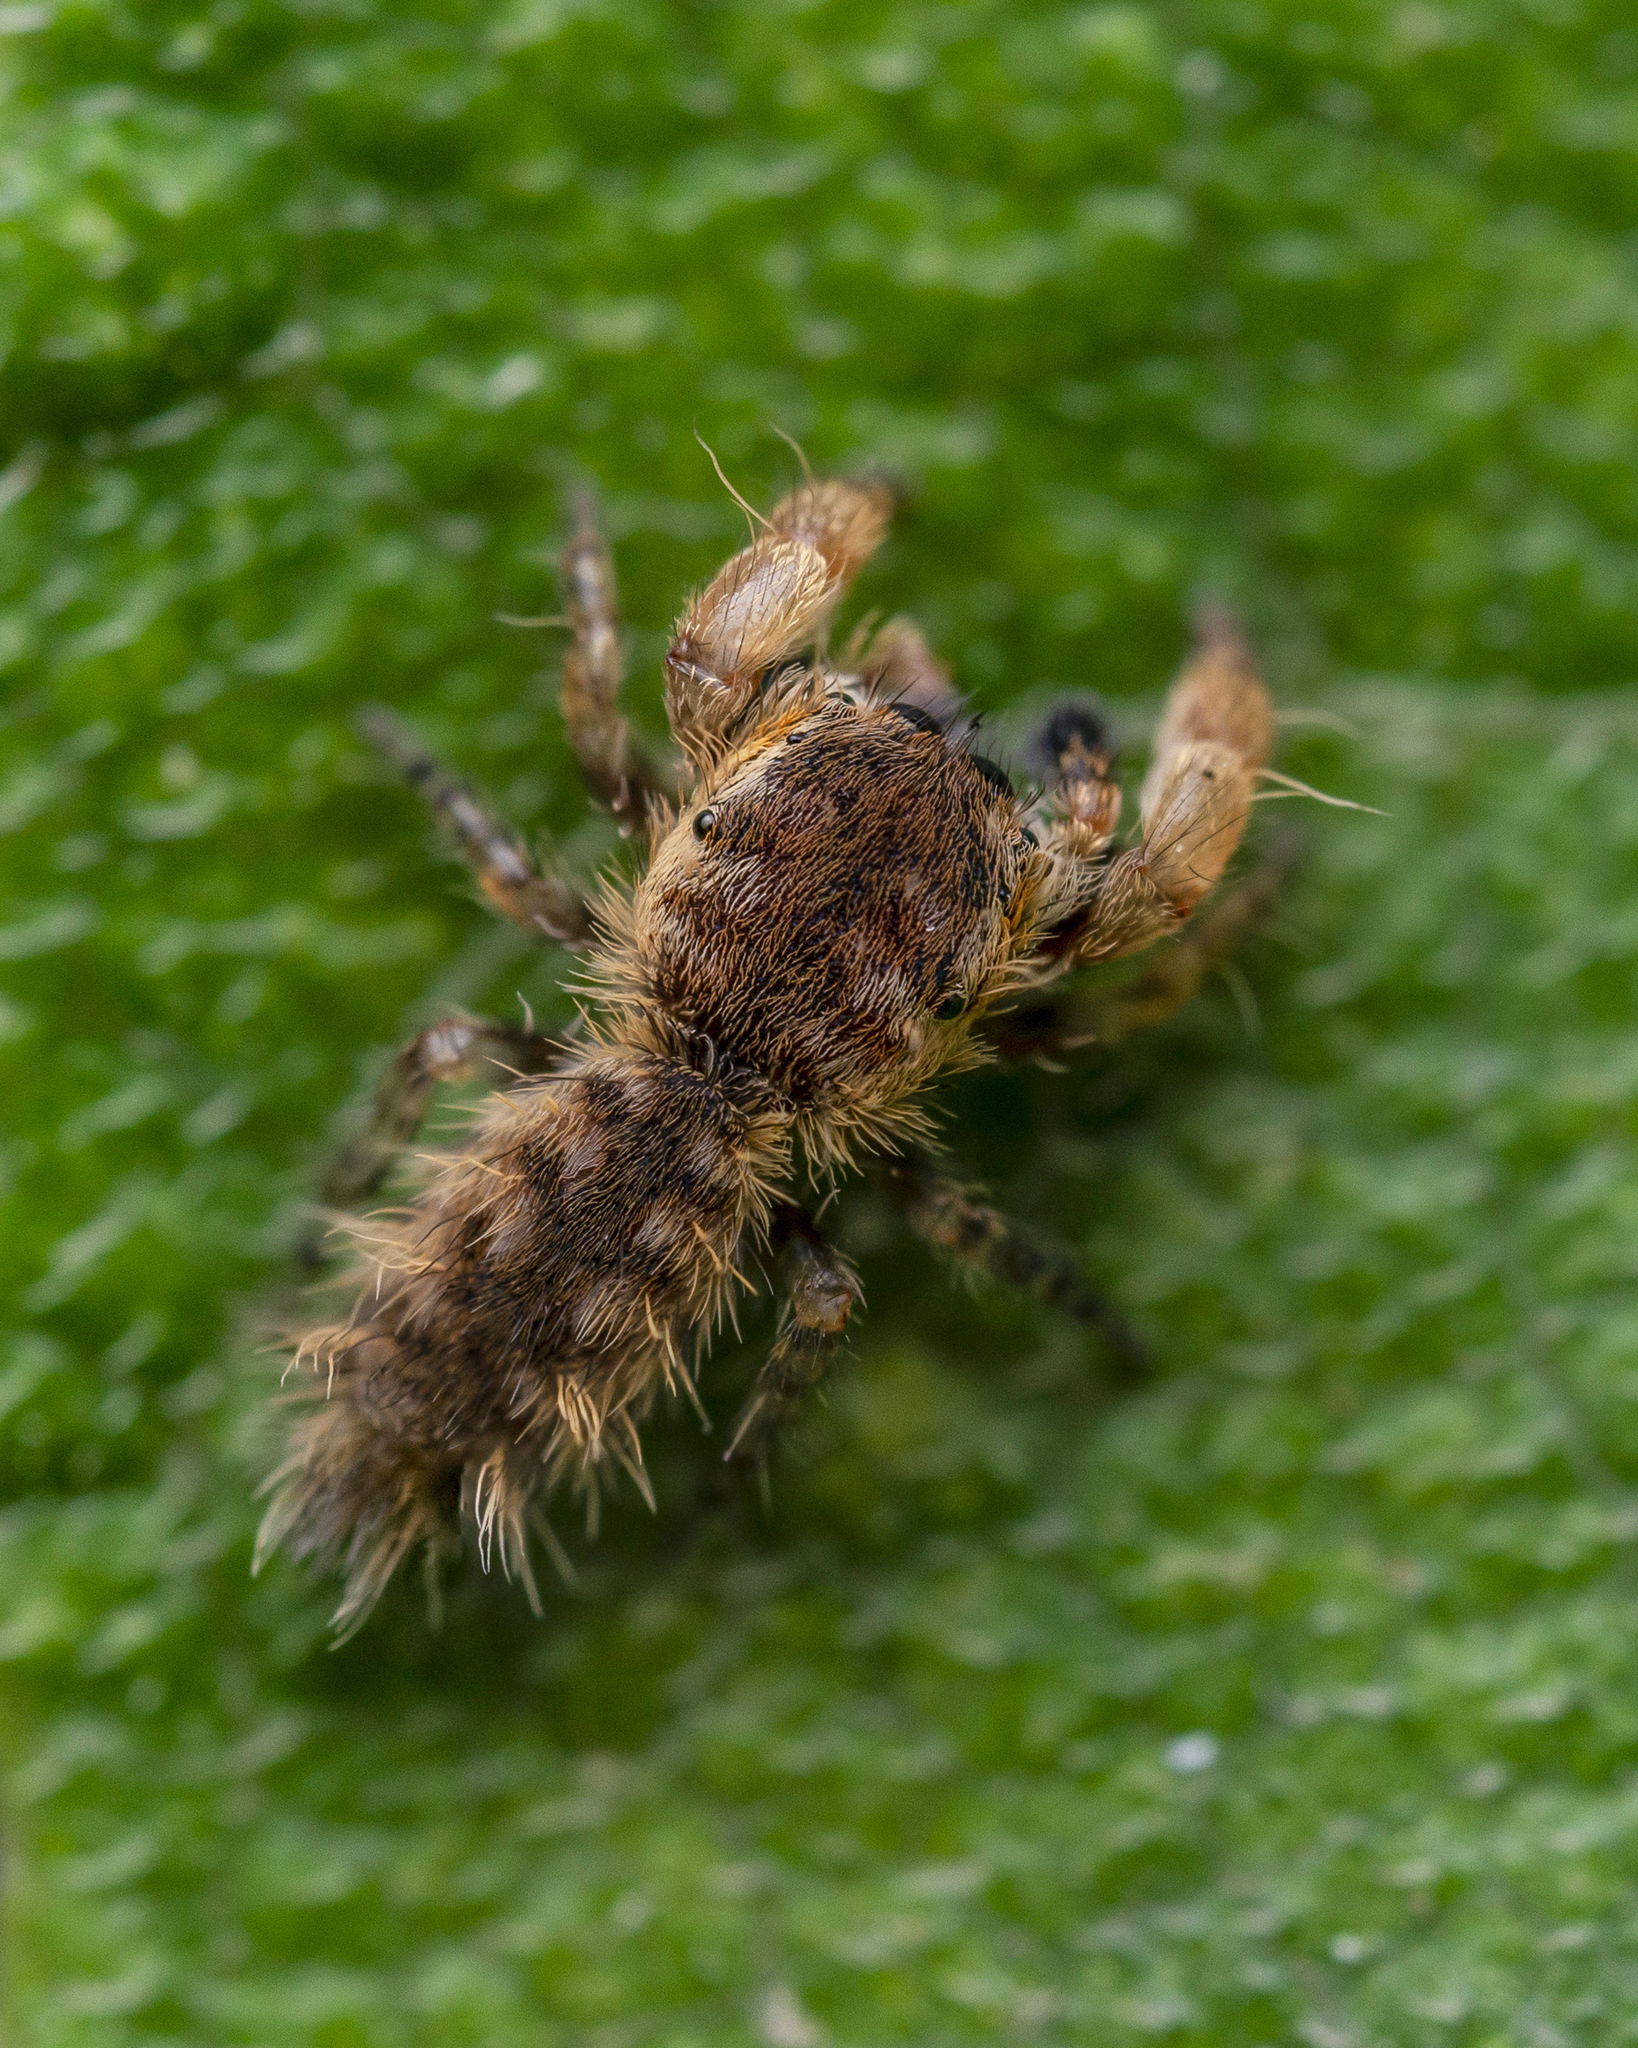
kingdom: Animalia
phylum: Arthropoda
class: Arachnida
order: Araneae
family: Salticidae
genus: Uroballus
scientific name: Uroballus carlei
